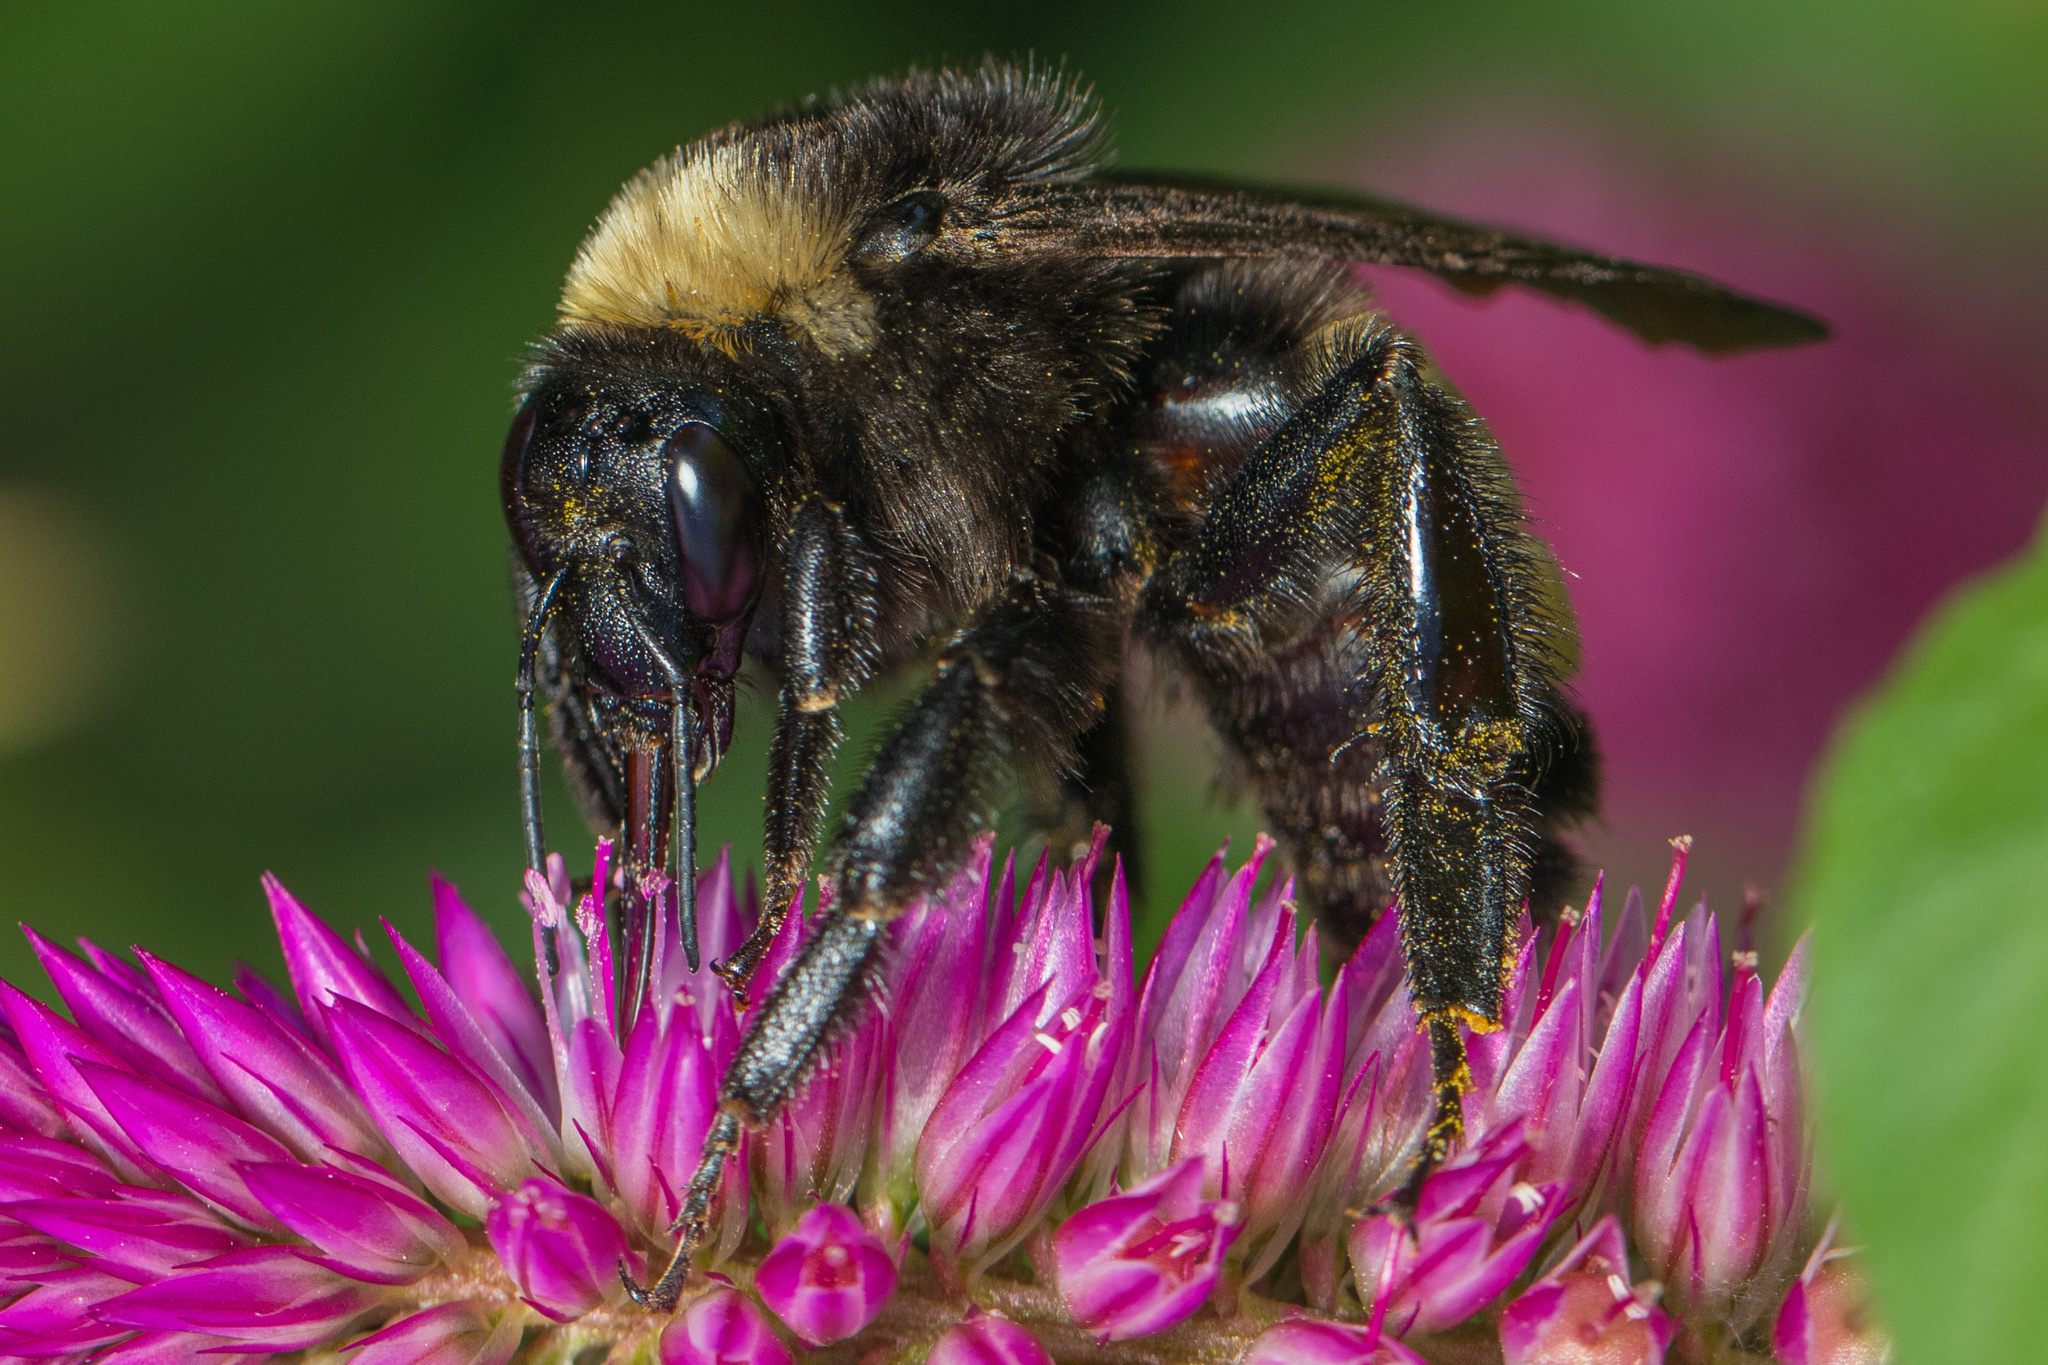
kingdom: Animalia
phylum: Arthropoda
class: Insecta
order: Hymenoptera
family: Apidae
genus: Bombus
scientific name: Bombus pensylvanicus
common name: Bumble bee
